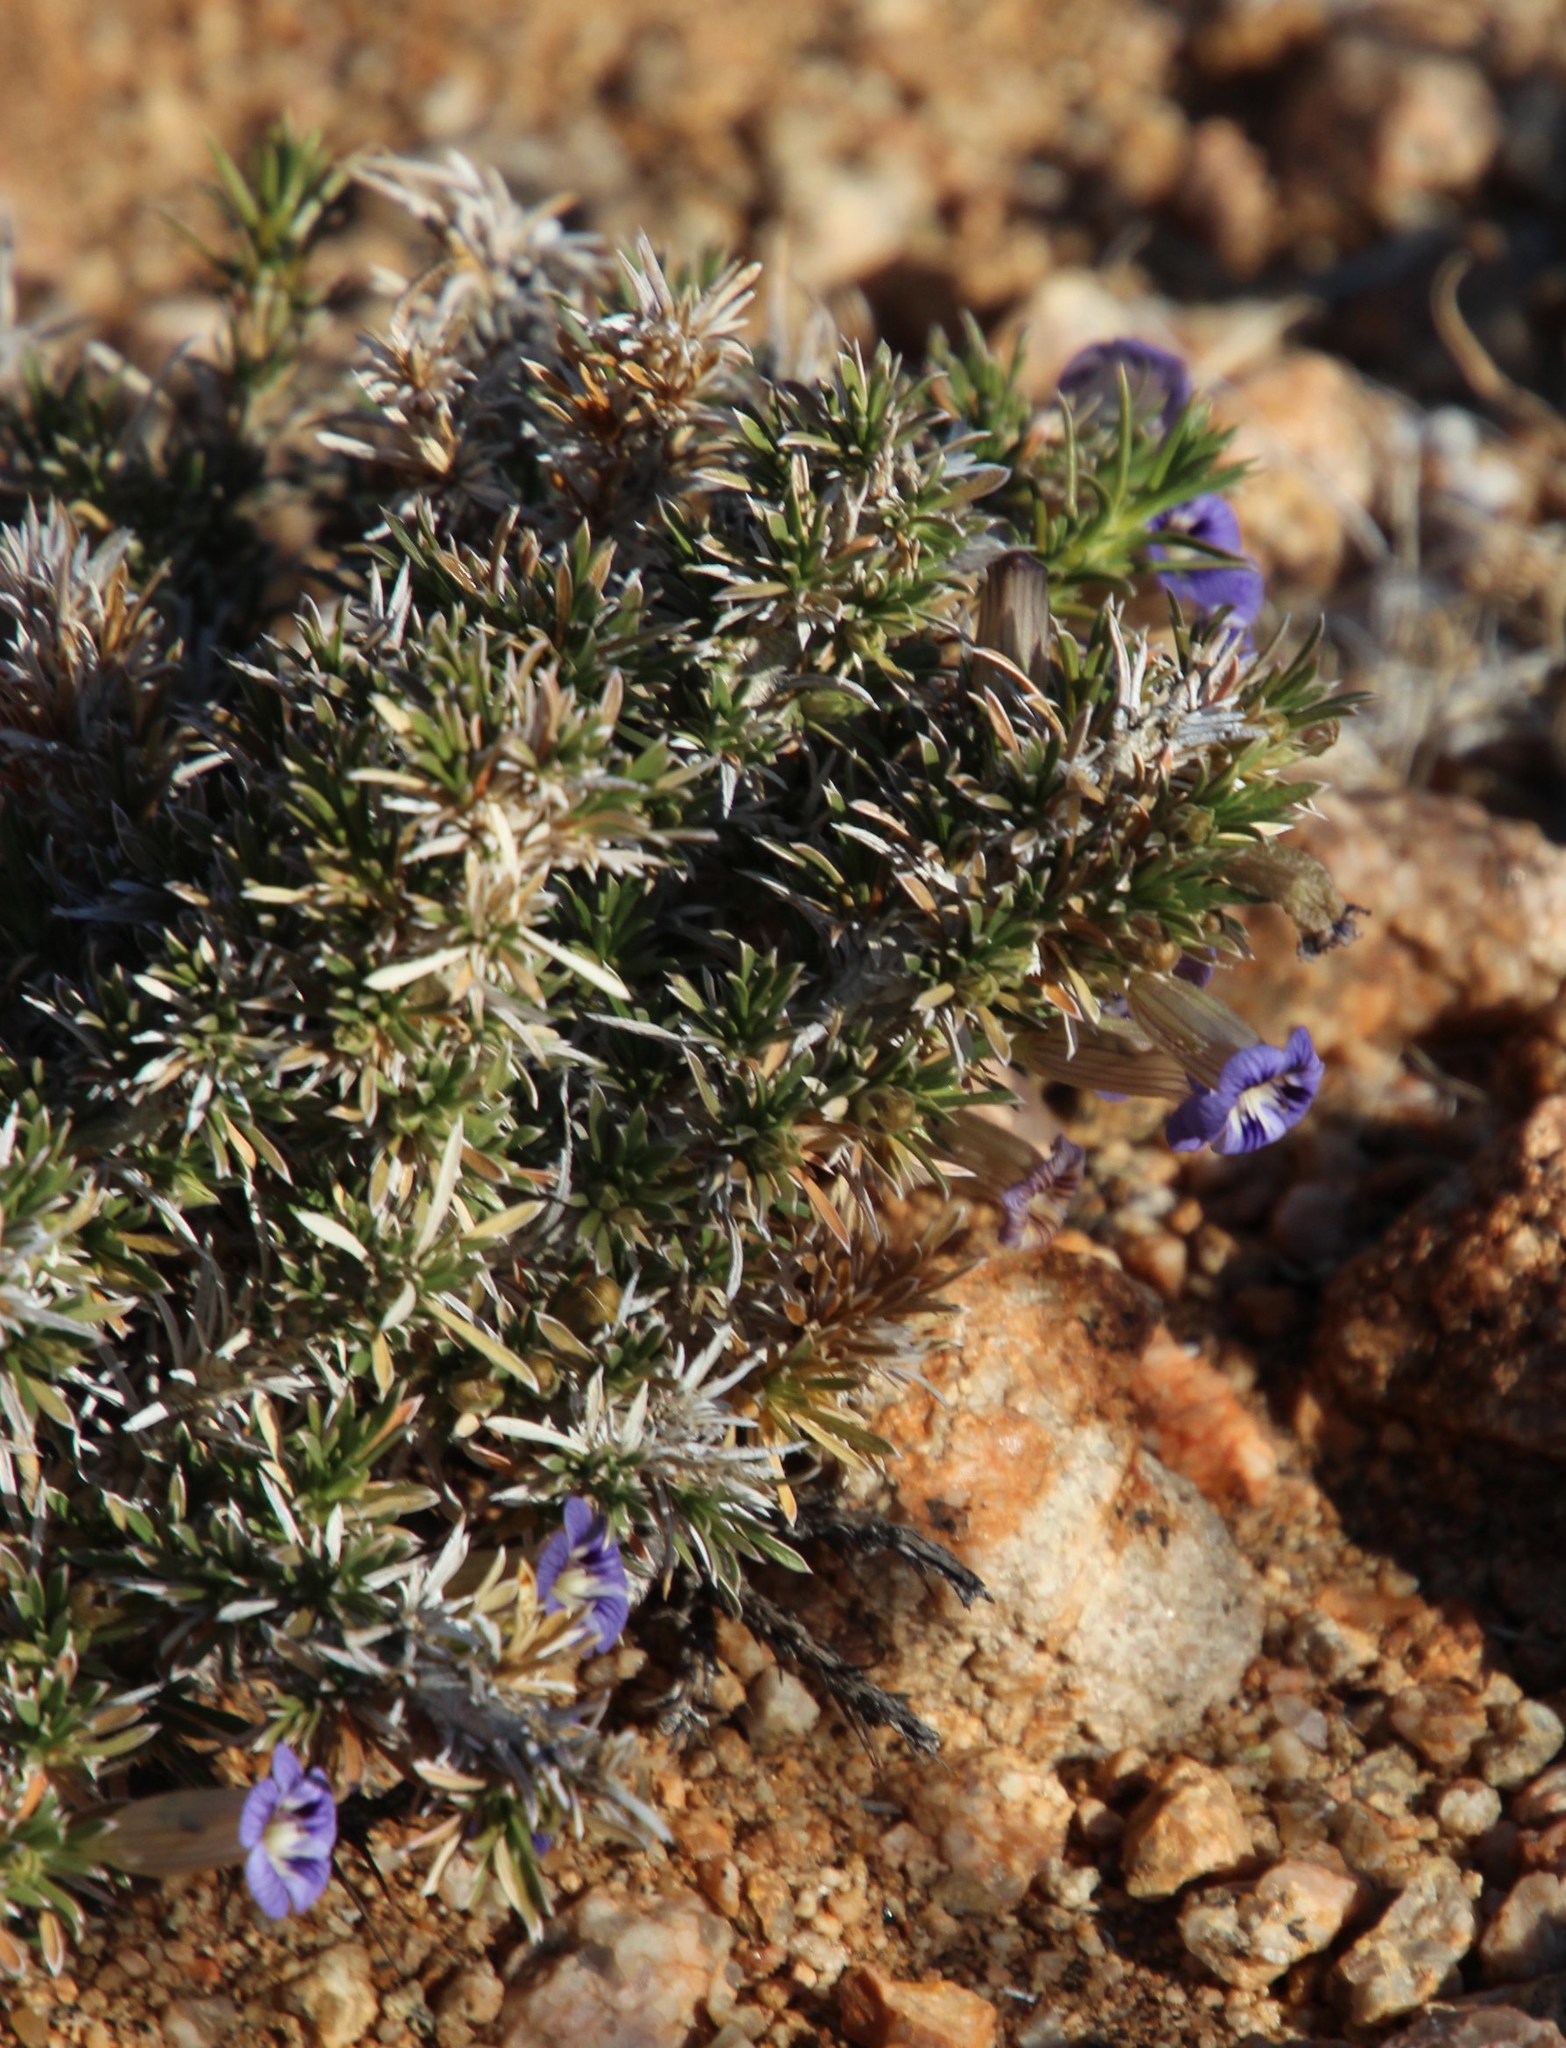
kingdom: Plantae
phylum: Tracheophyta
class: Magnoliopsida
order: Lamiales
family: Scrophulariaceae
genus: Aptosimum
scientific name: Aptosimum spinescens
